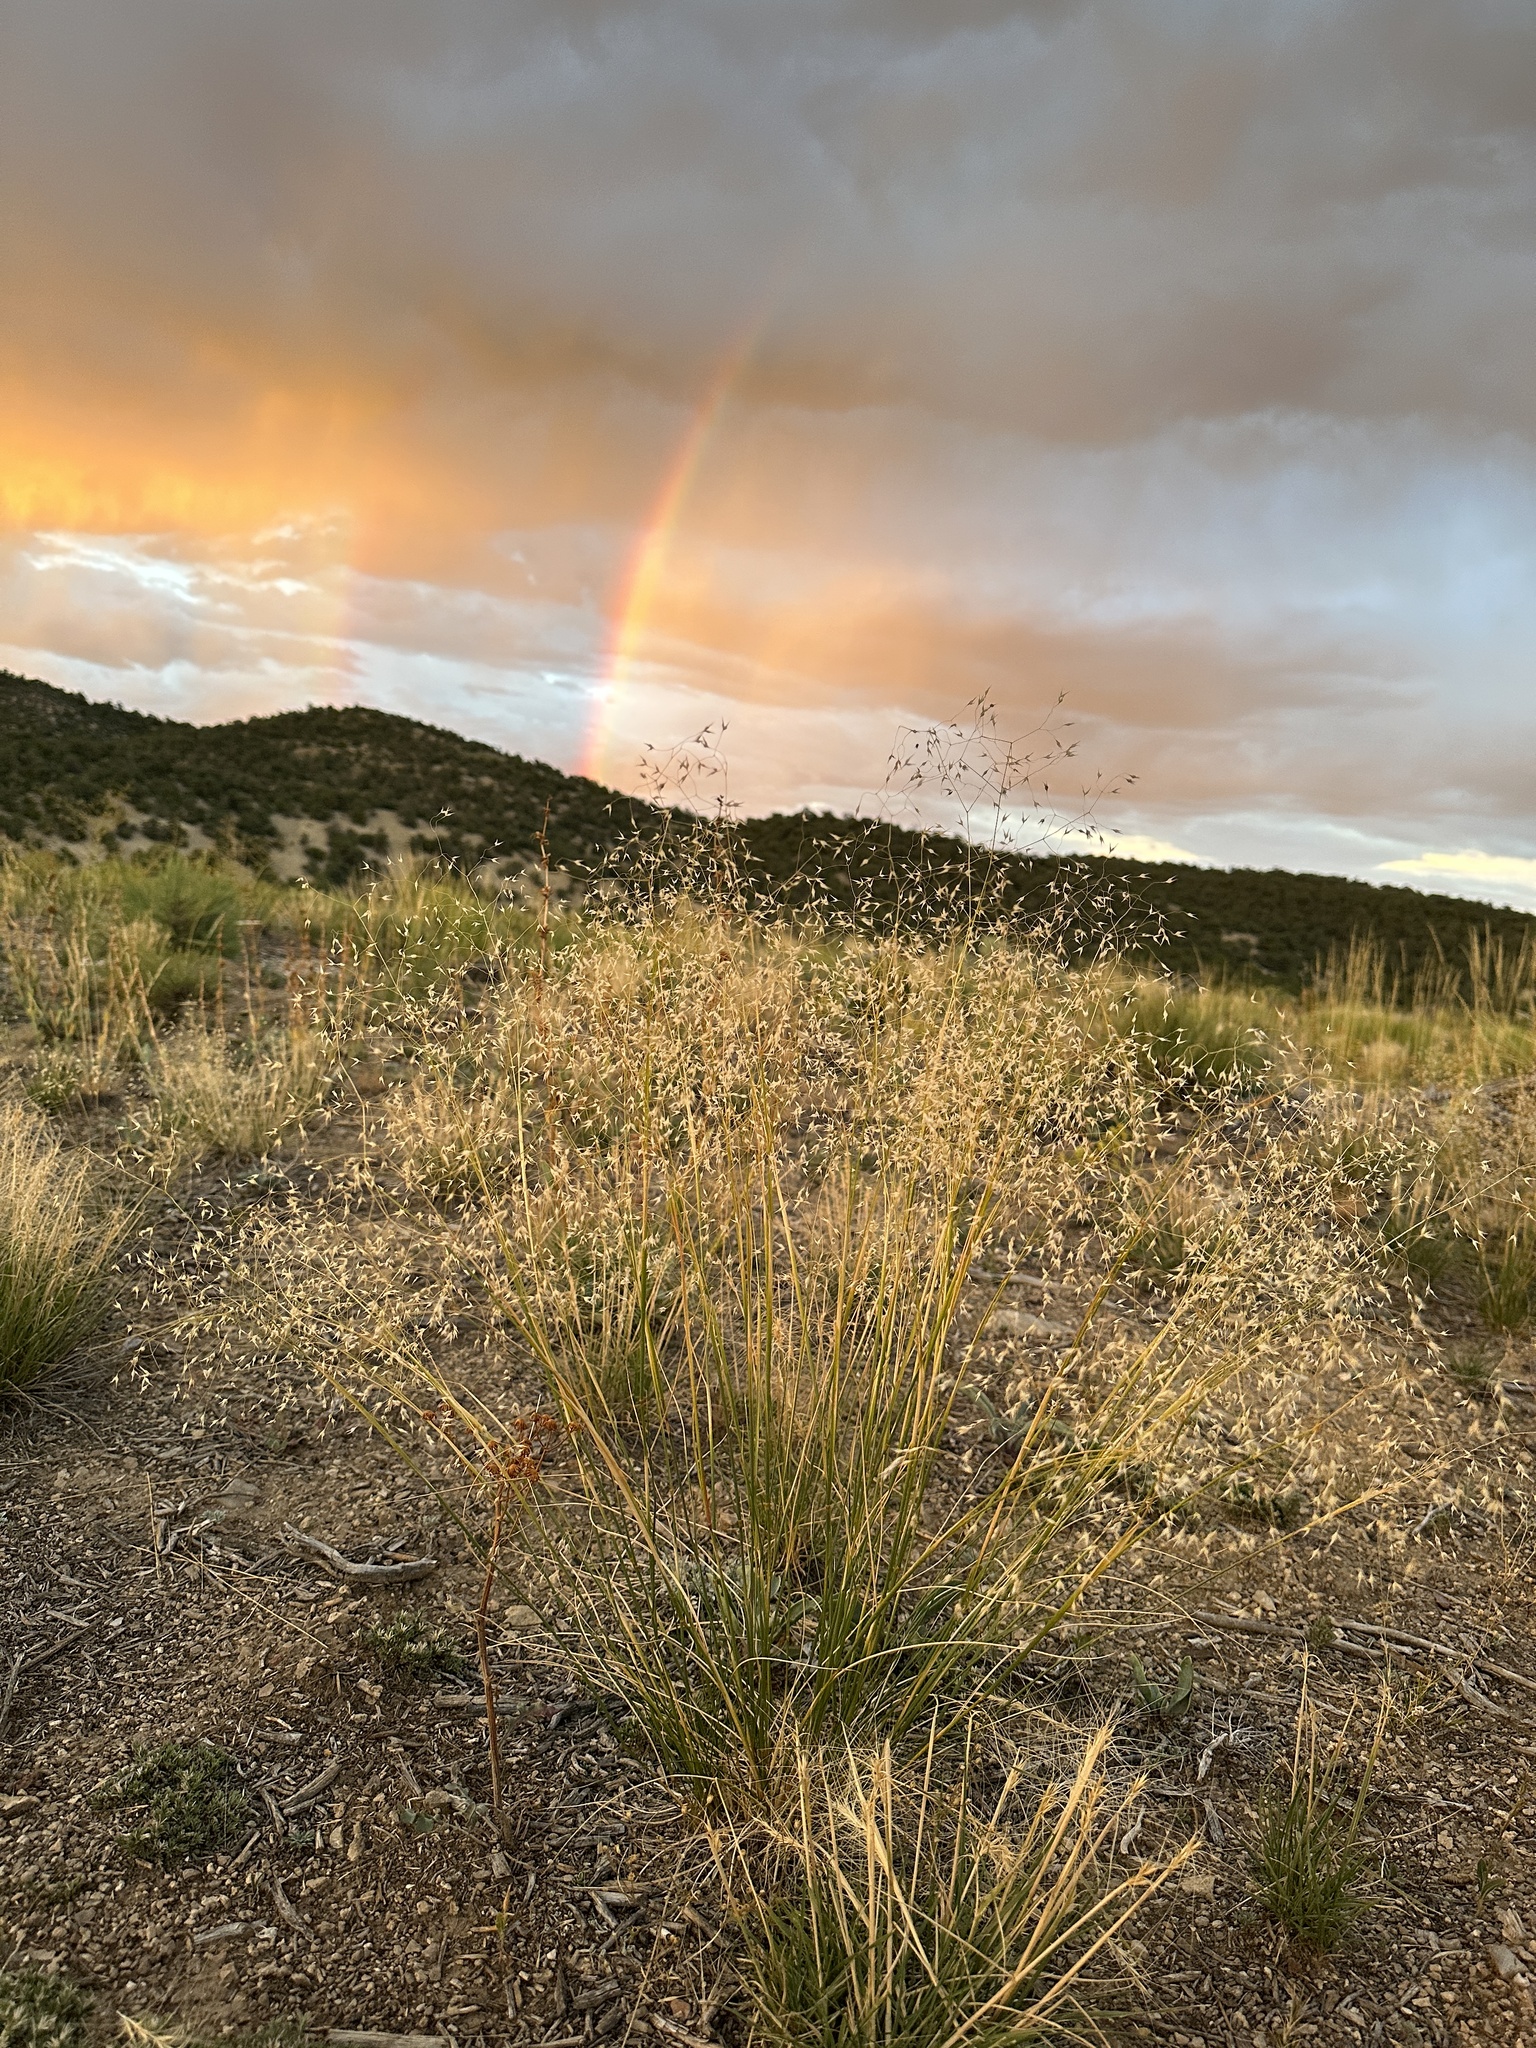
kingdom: Plantae
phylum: Tracheophyta
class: Liliopsida
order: Poales
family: Poaceae
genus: Eriocoma
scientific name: Eriocoma hymenoides
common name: Indian mountain ricegrass
